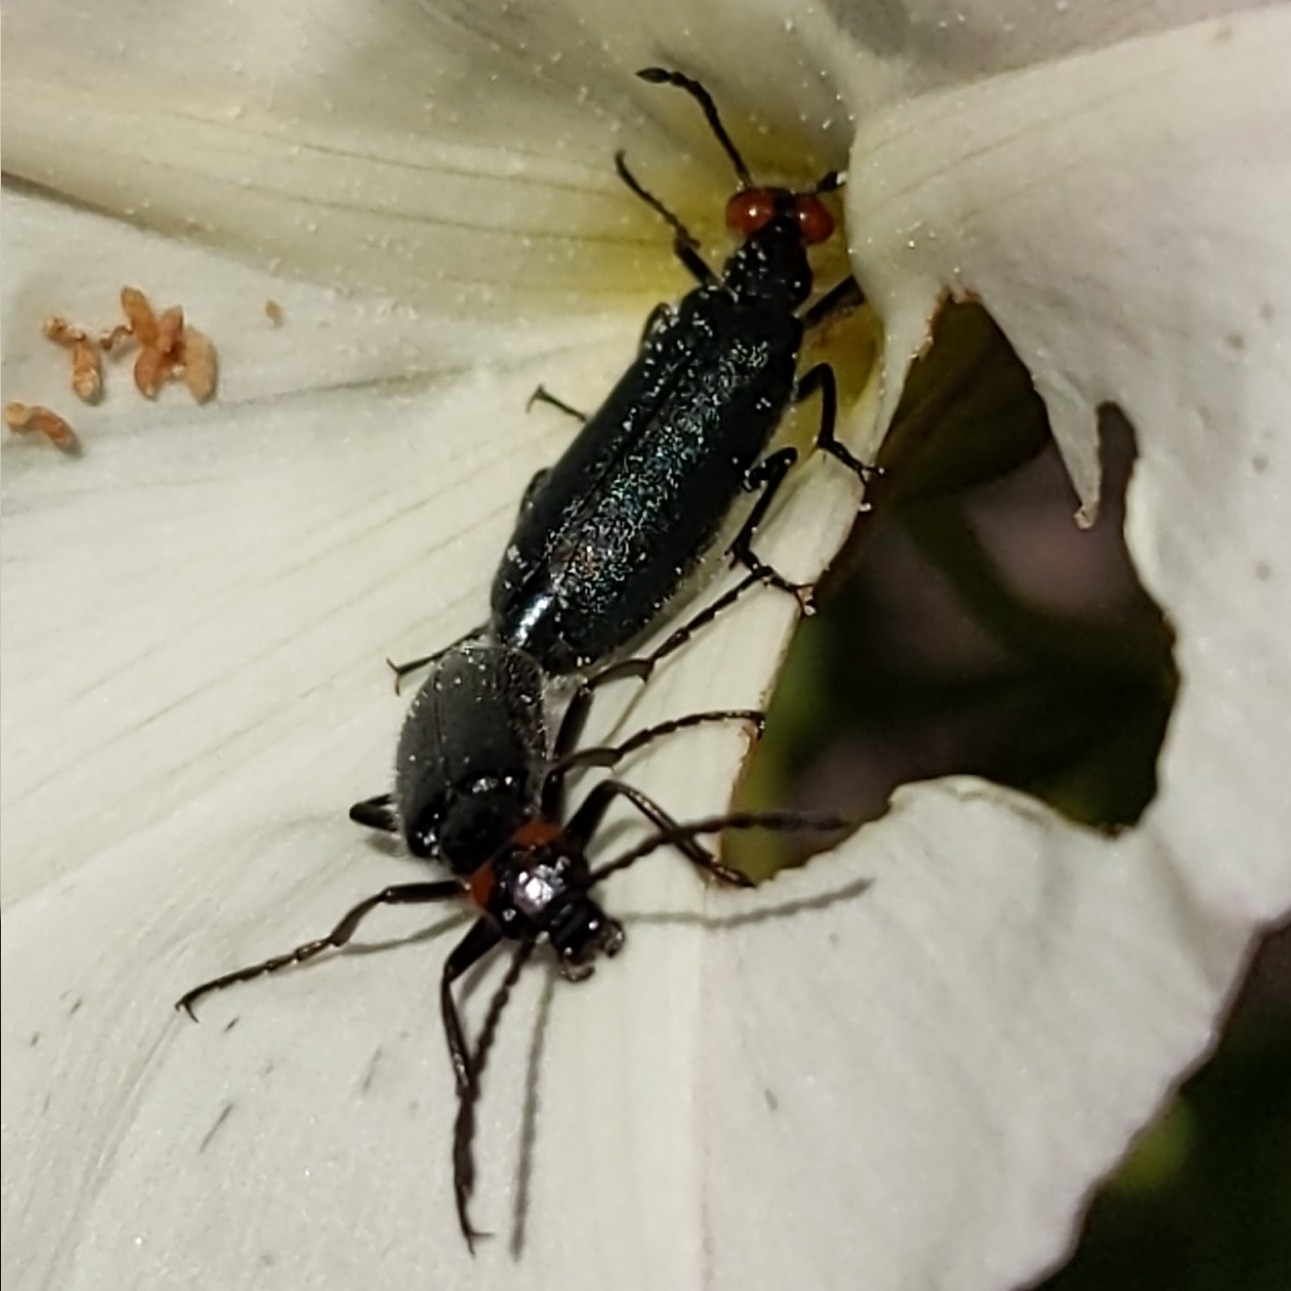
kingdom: Animalia
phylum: Arthropoda
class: Insecta
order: Coleoptera
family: Meloidae
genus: Lytta
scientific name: Lytta auriculata
